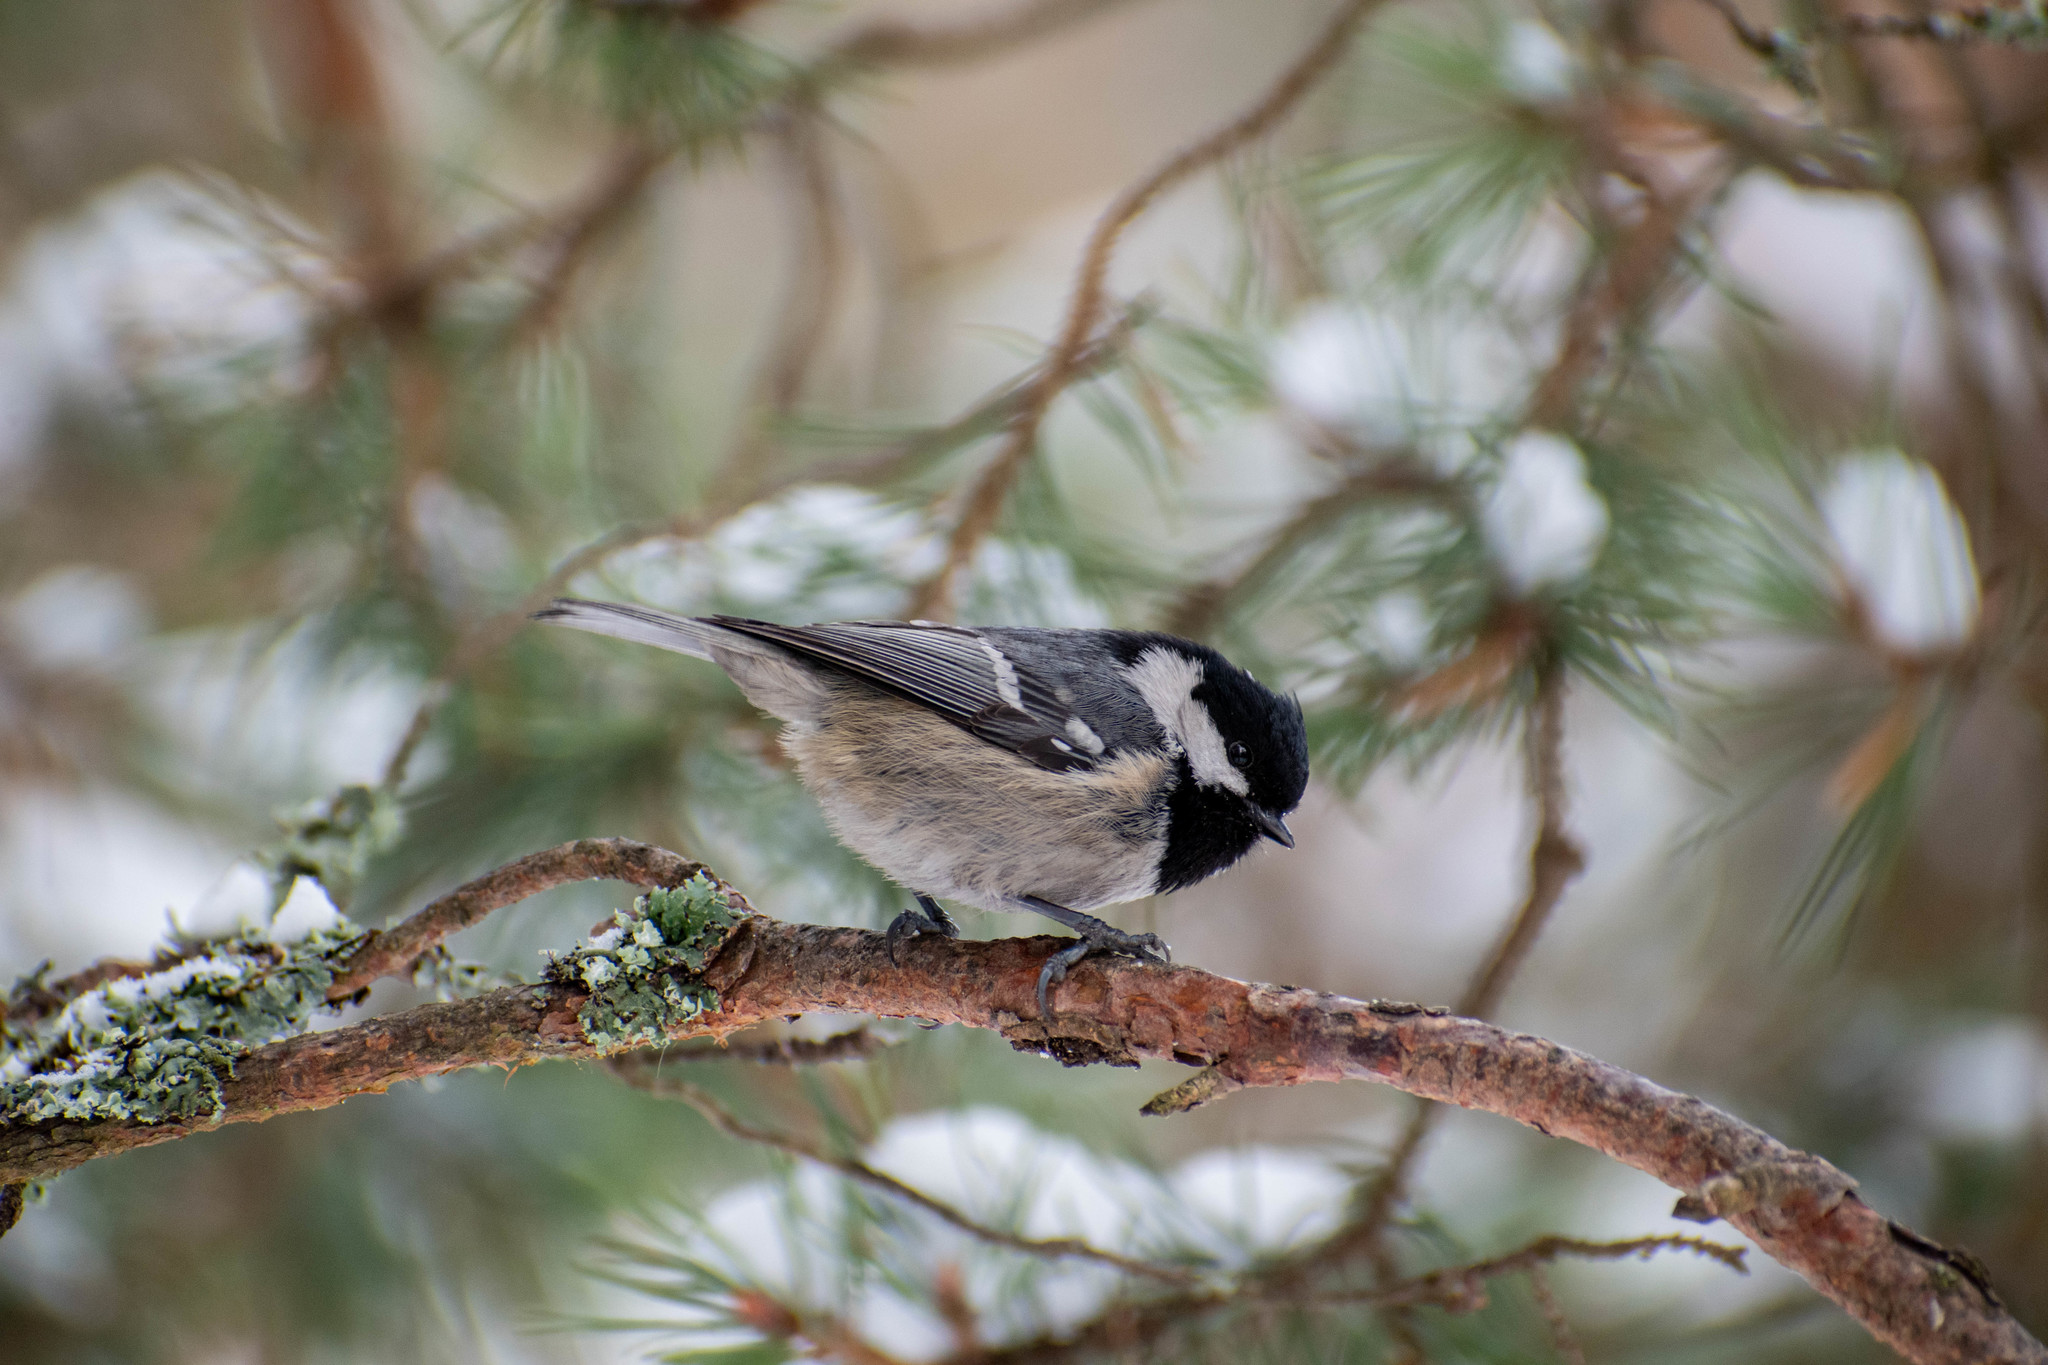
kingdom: Animalia
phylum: Chordata
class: Aves
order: Passeriformes
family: Paridae
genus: Periparus
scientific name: Periparus ater
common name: Coal tit
